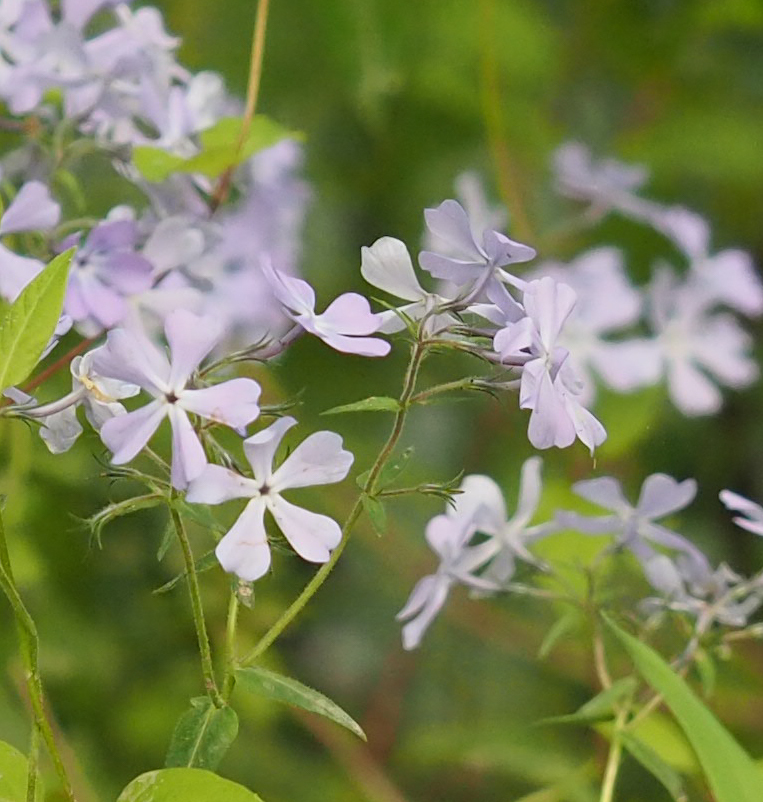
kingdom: Plantae
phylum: Tracheophyta
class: Magnoliopsida
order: Ericales
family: Polemoniaceae
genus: Phlox
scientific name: Phlox divaricata
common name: Blue phlox
